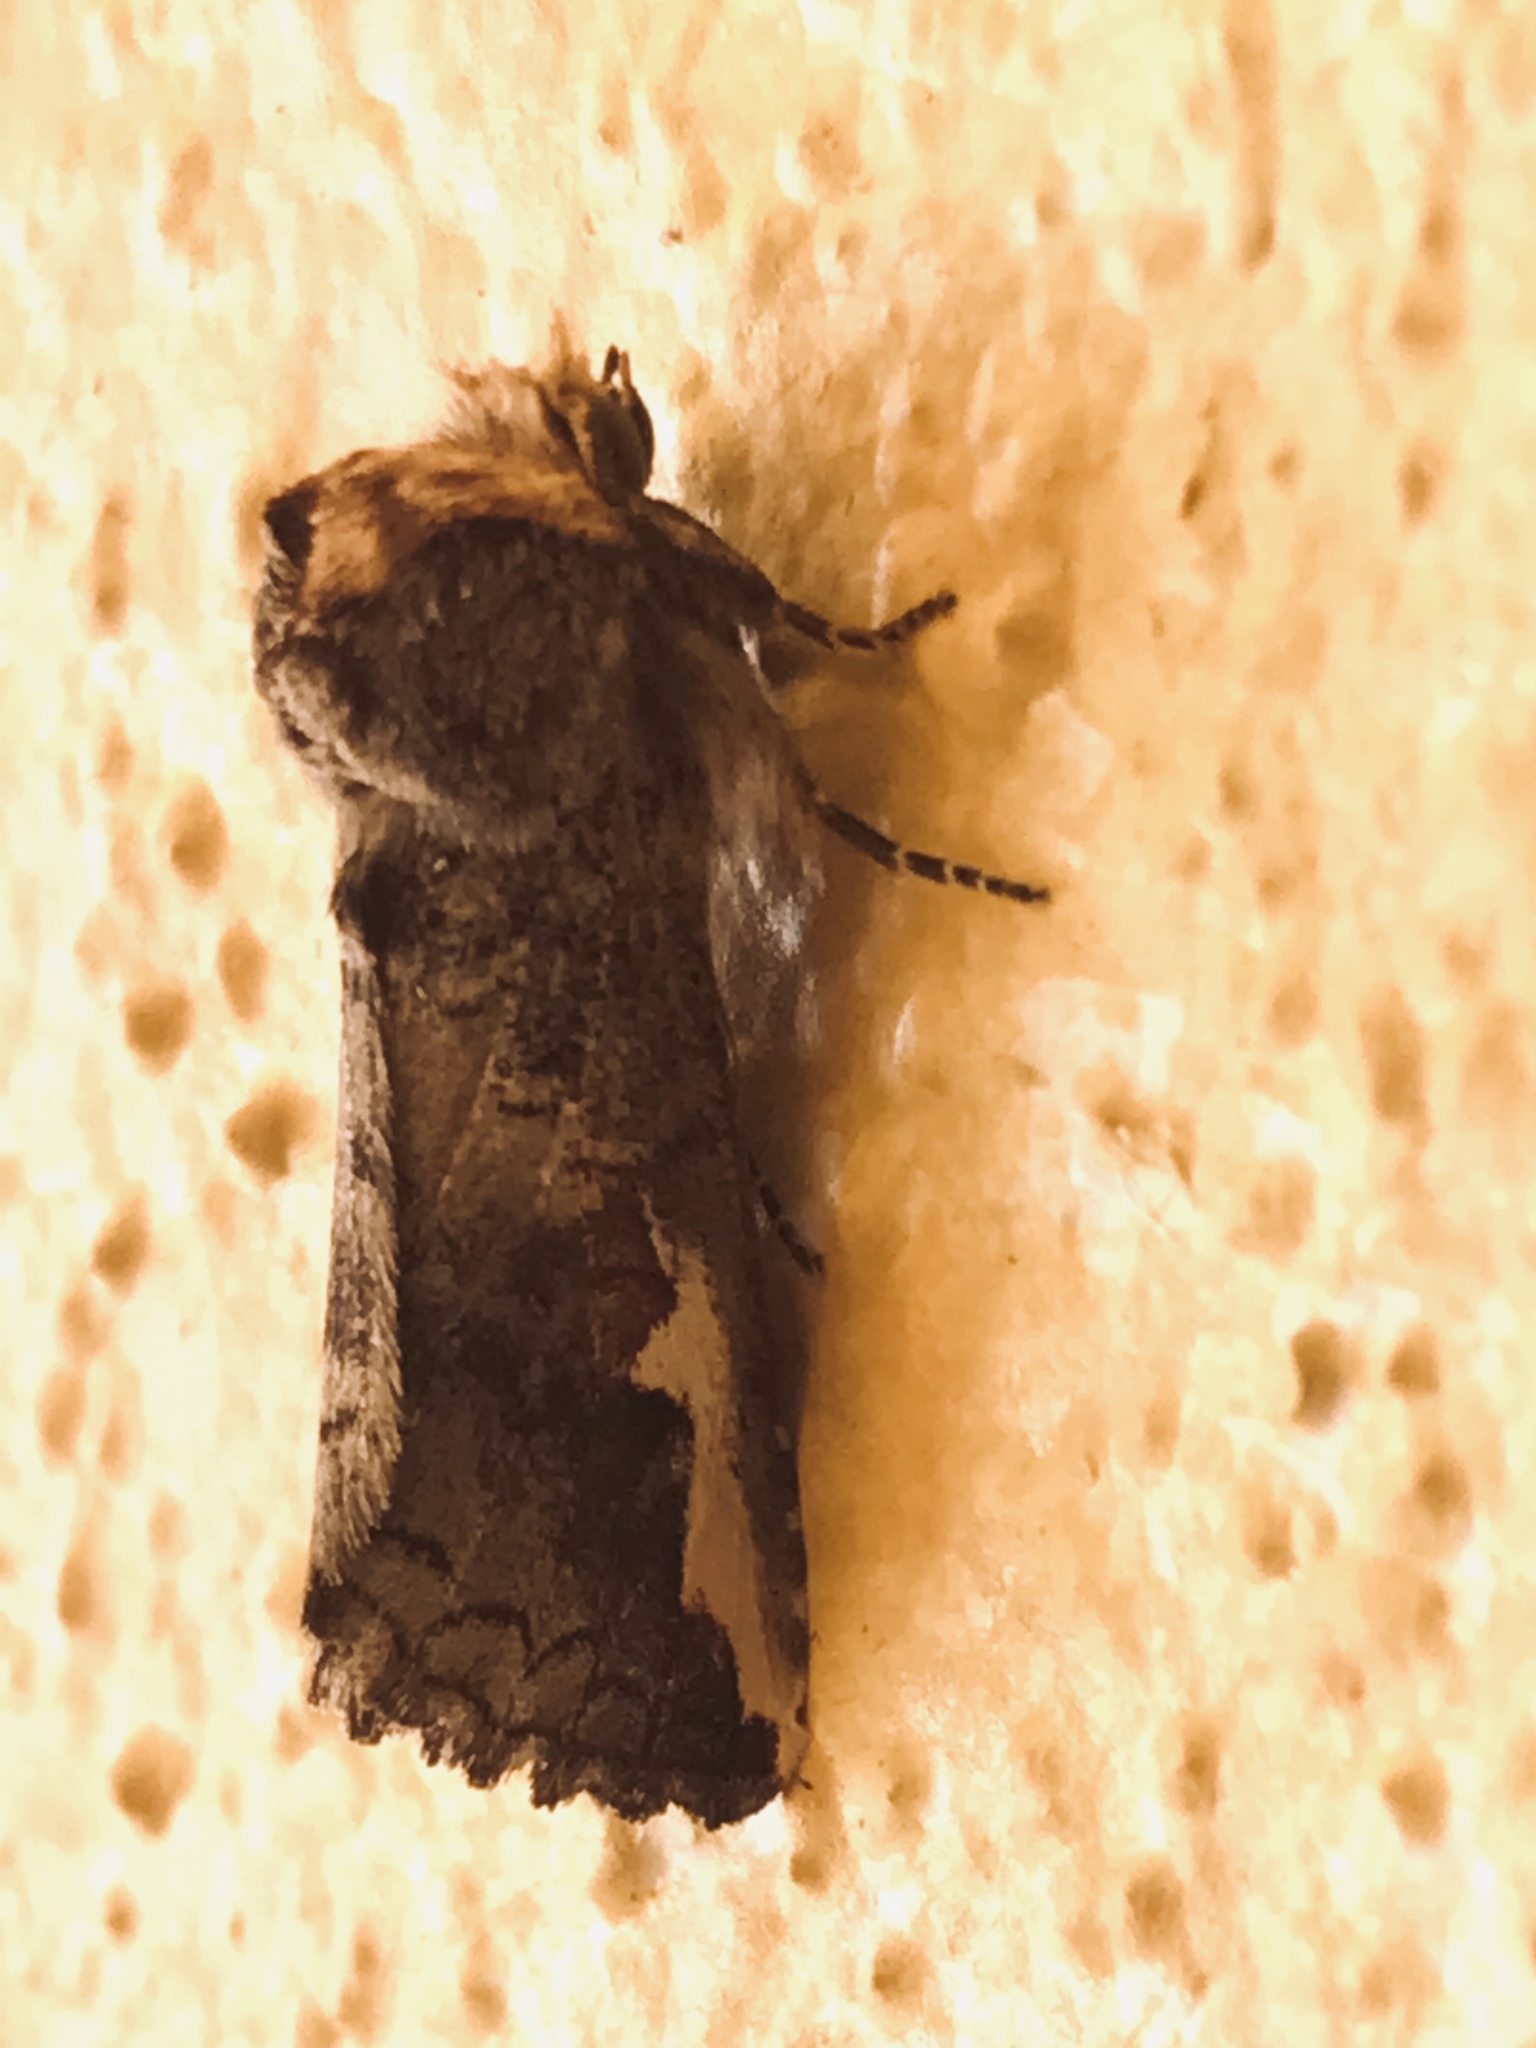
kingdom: Animalia
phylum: Arthropoda
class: Insecta
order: Lepidoptera
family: Notodontidae
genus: Symmerista
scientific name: Symmerista
